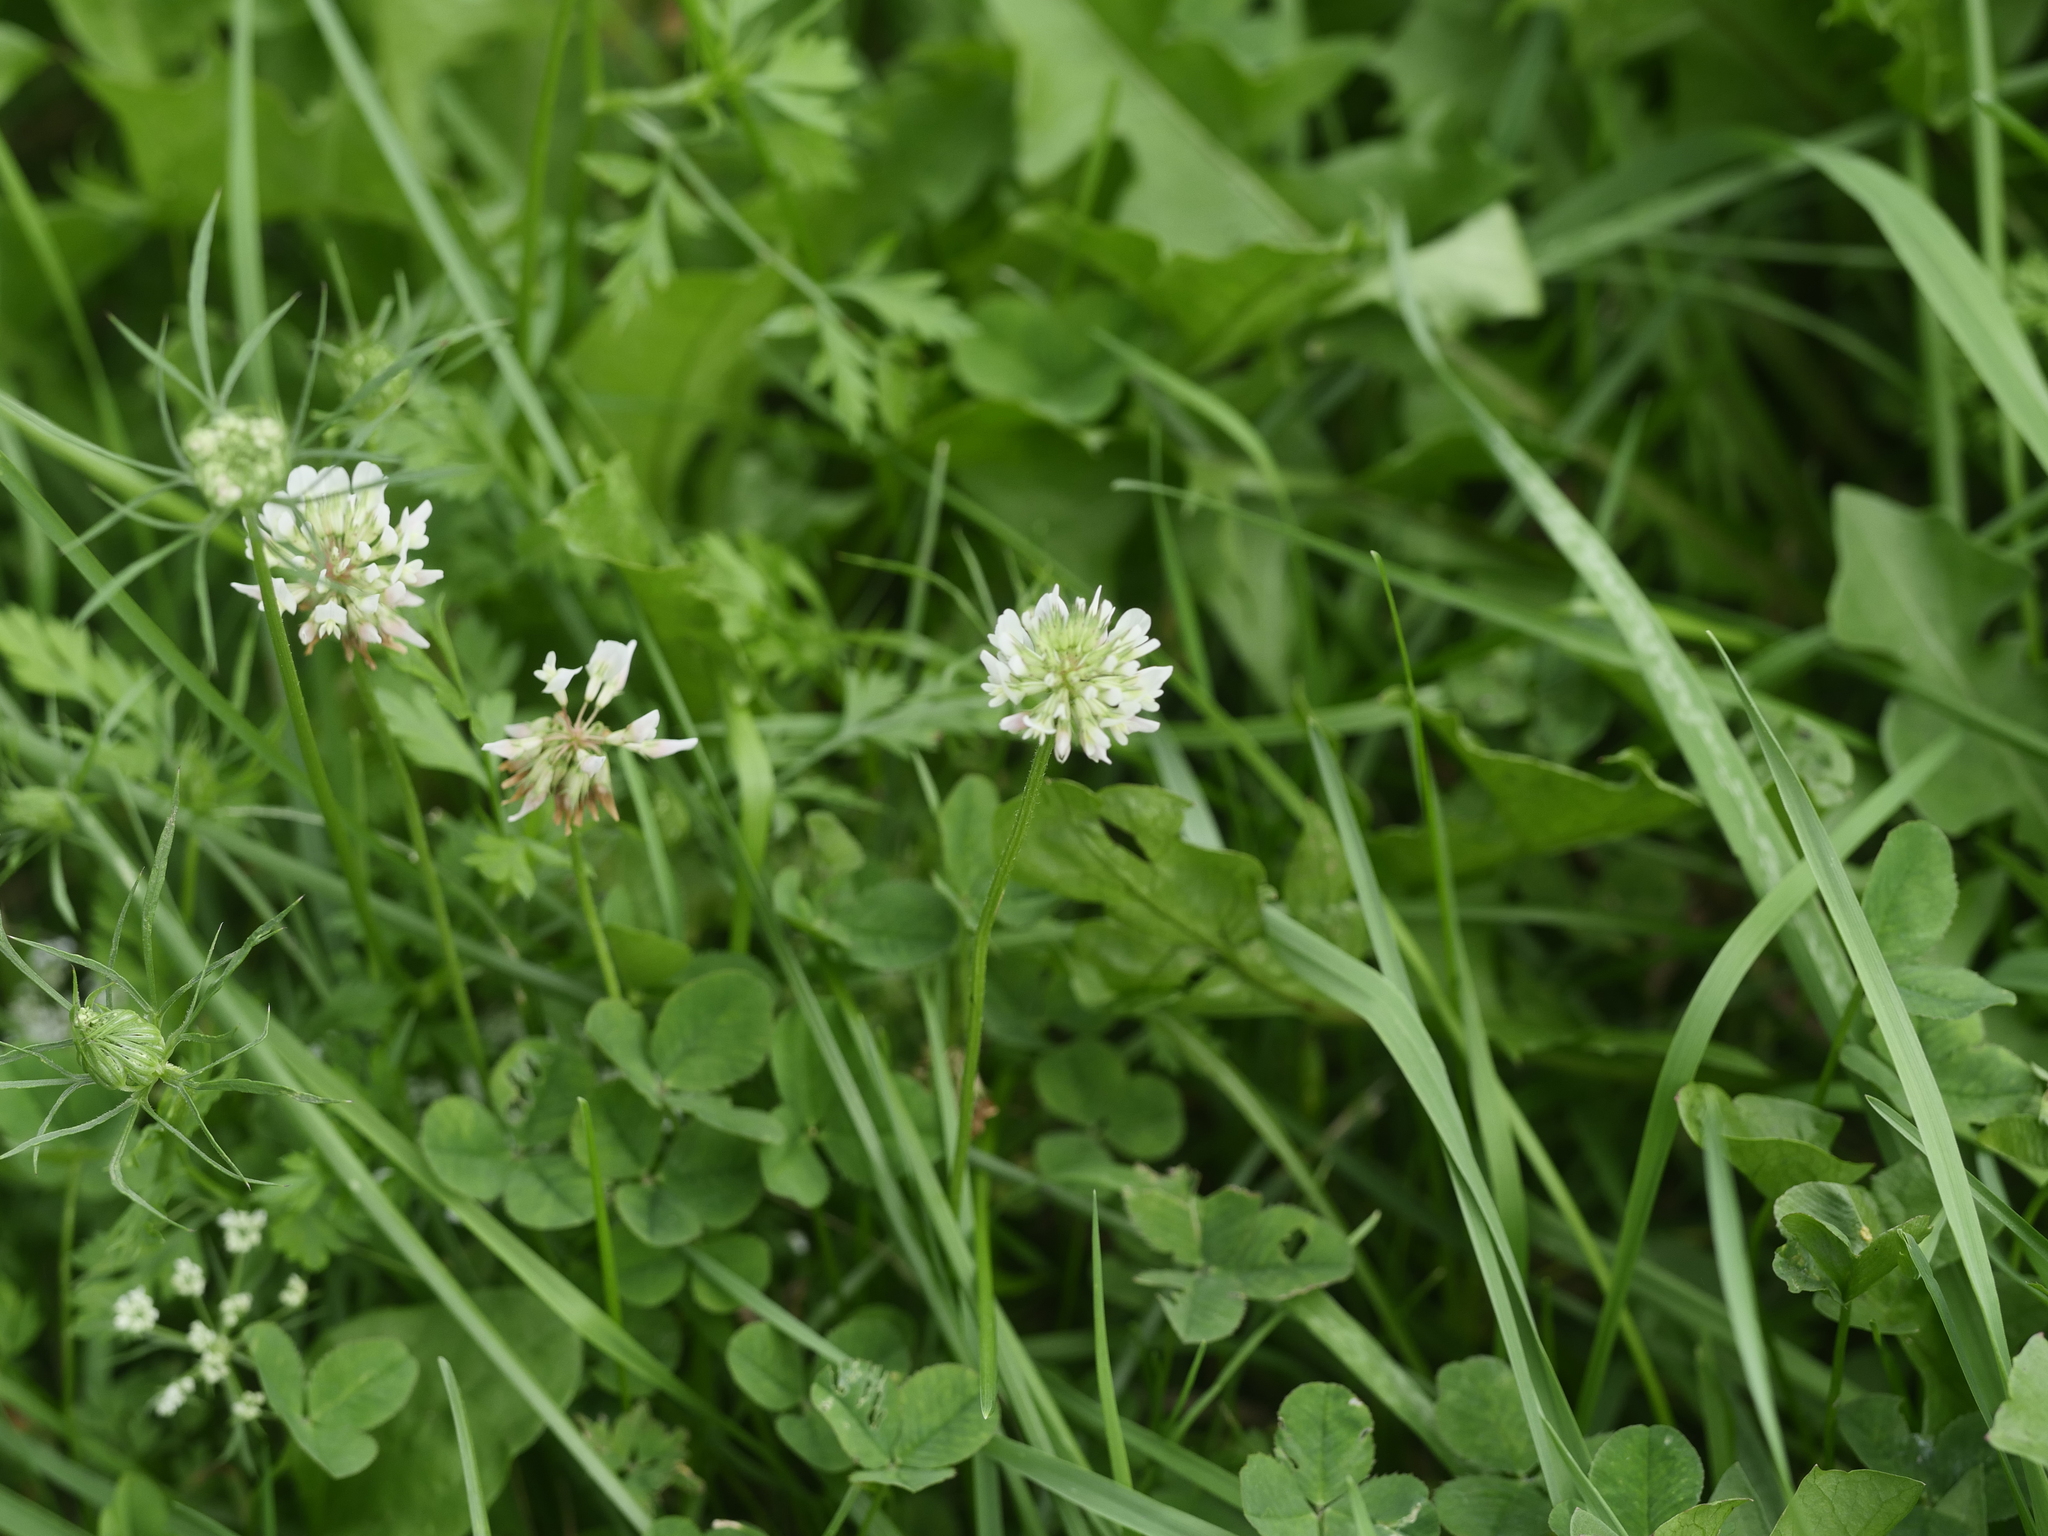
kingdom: Plantae
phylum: Tracheophyta
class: Magnoliopsida
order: Fabales
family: Fabaceae
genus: Trifolium
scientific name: Trifolium repens
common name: White clover
